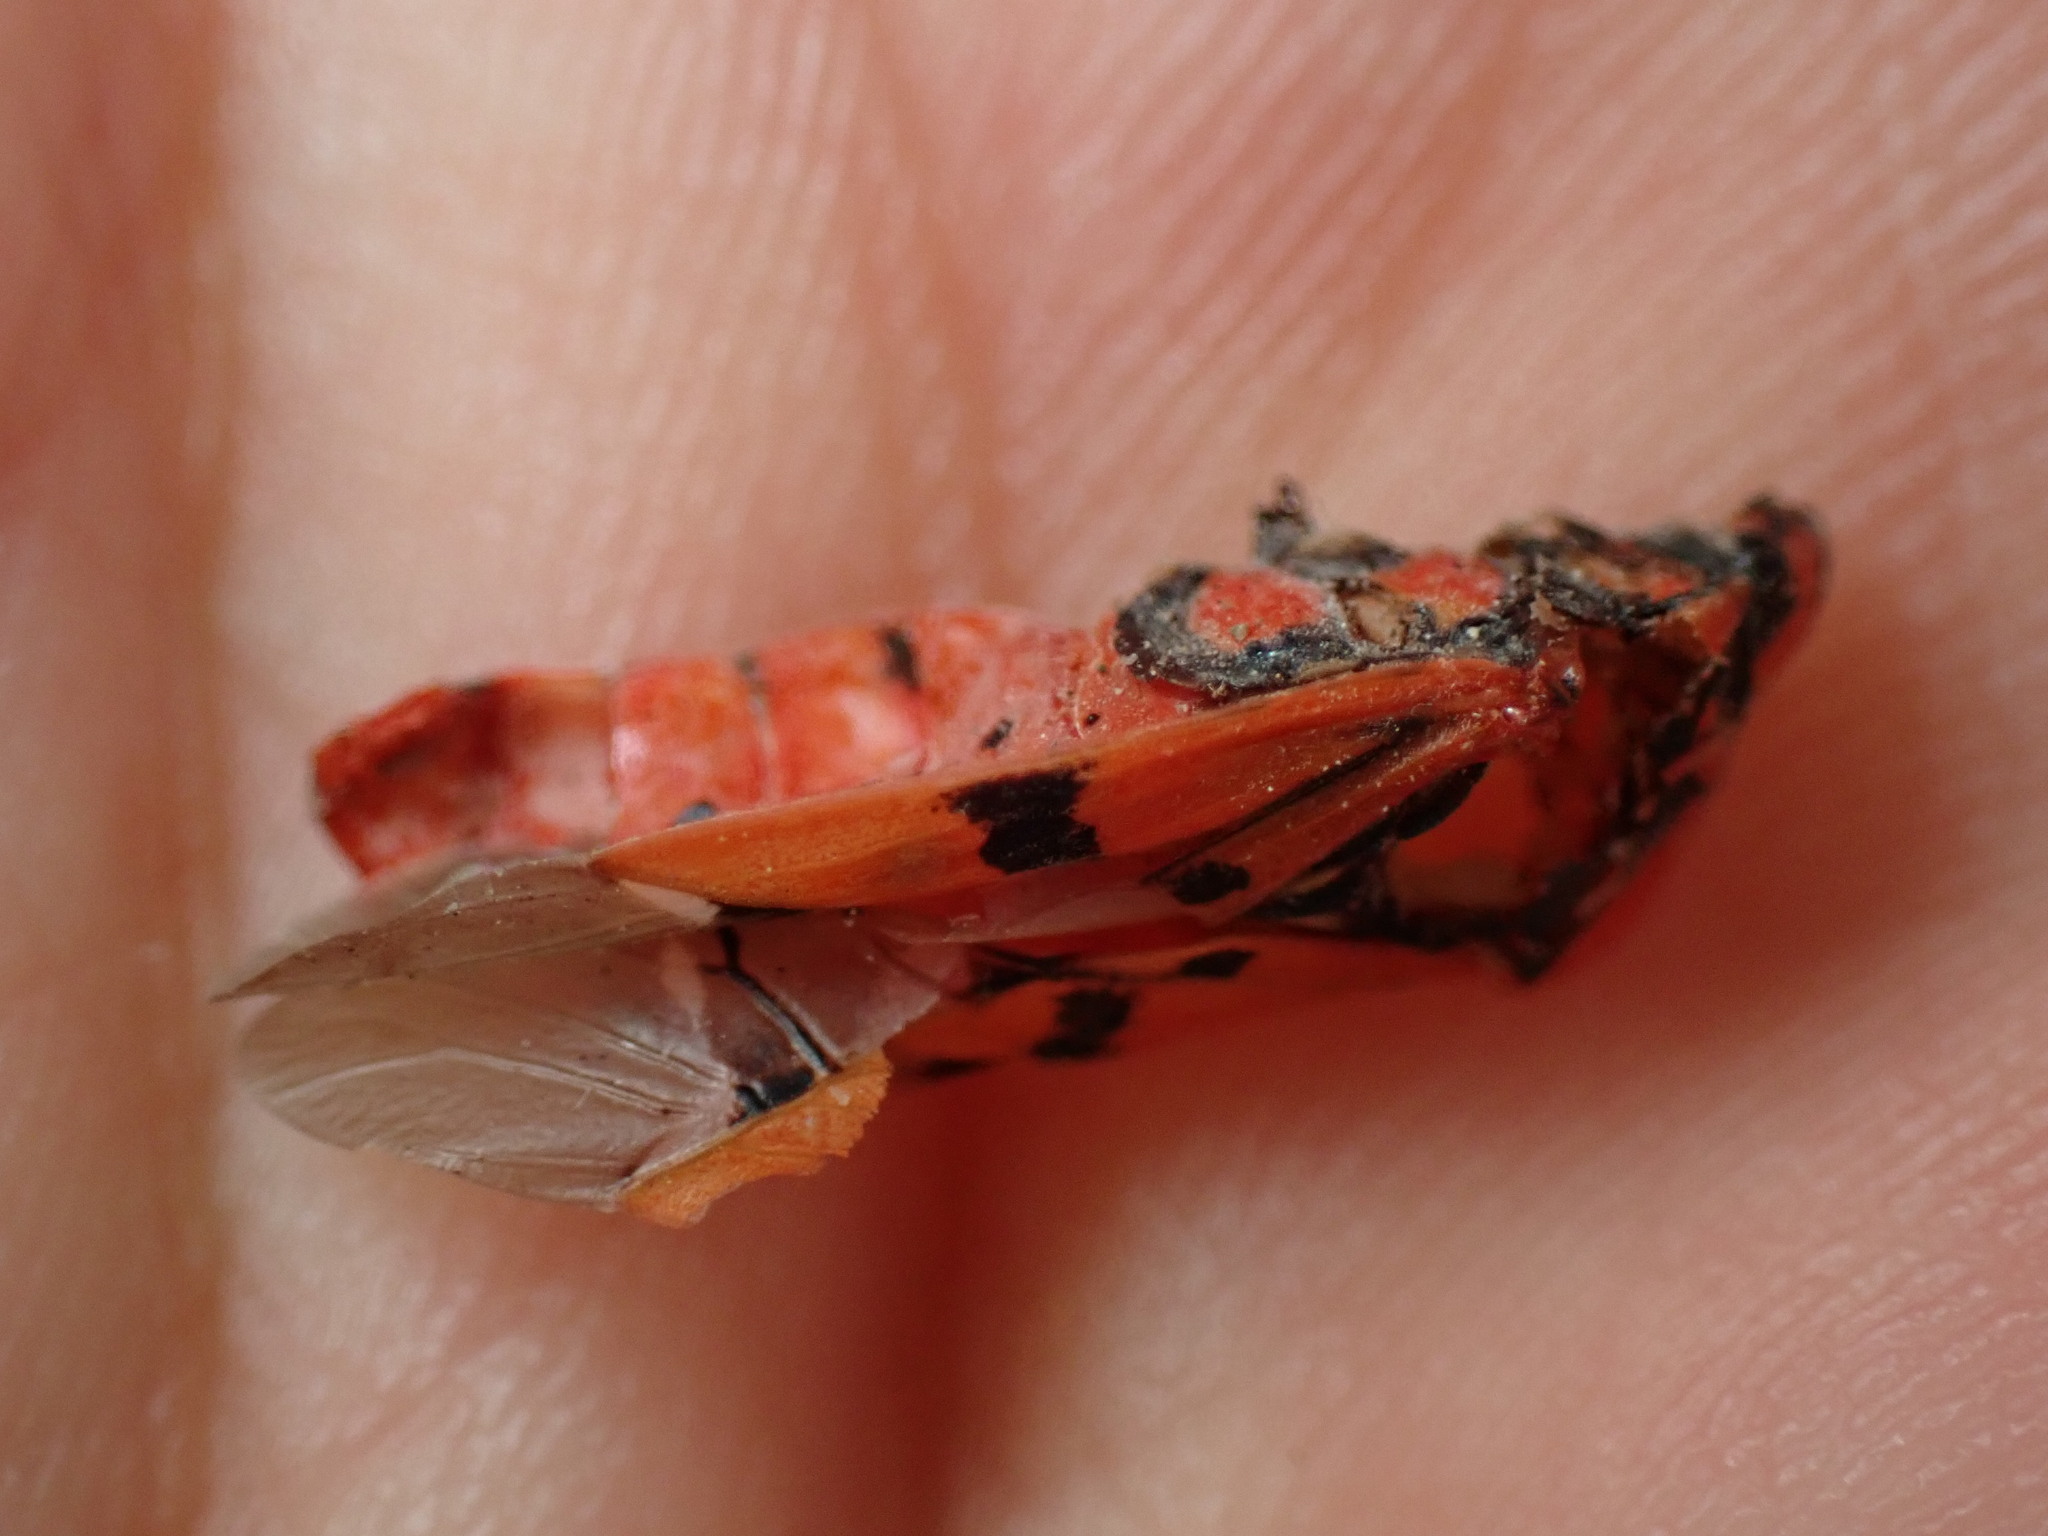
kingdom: Animalia
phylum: Arthropoda
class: Insecta
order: Hemiptera
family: Lygaeidae
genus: Spilostethus
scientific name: Spilostethus pandurus
